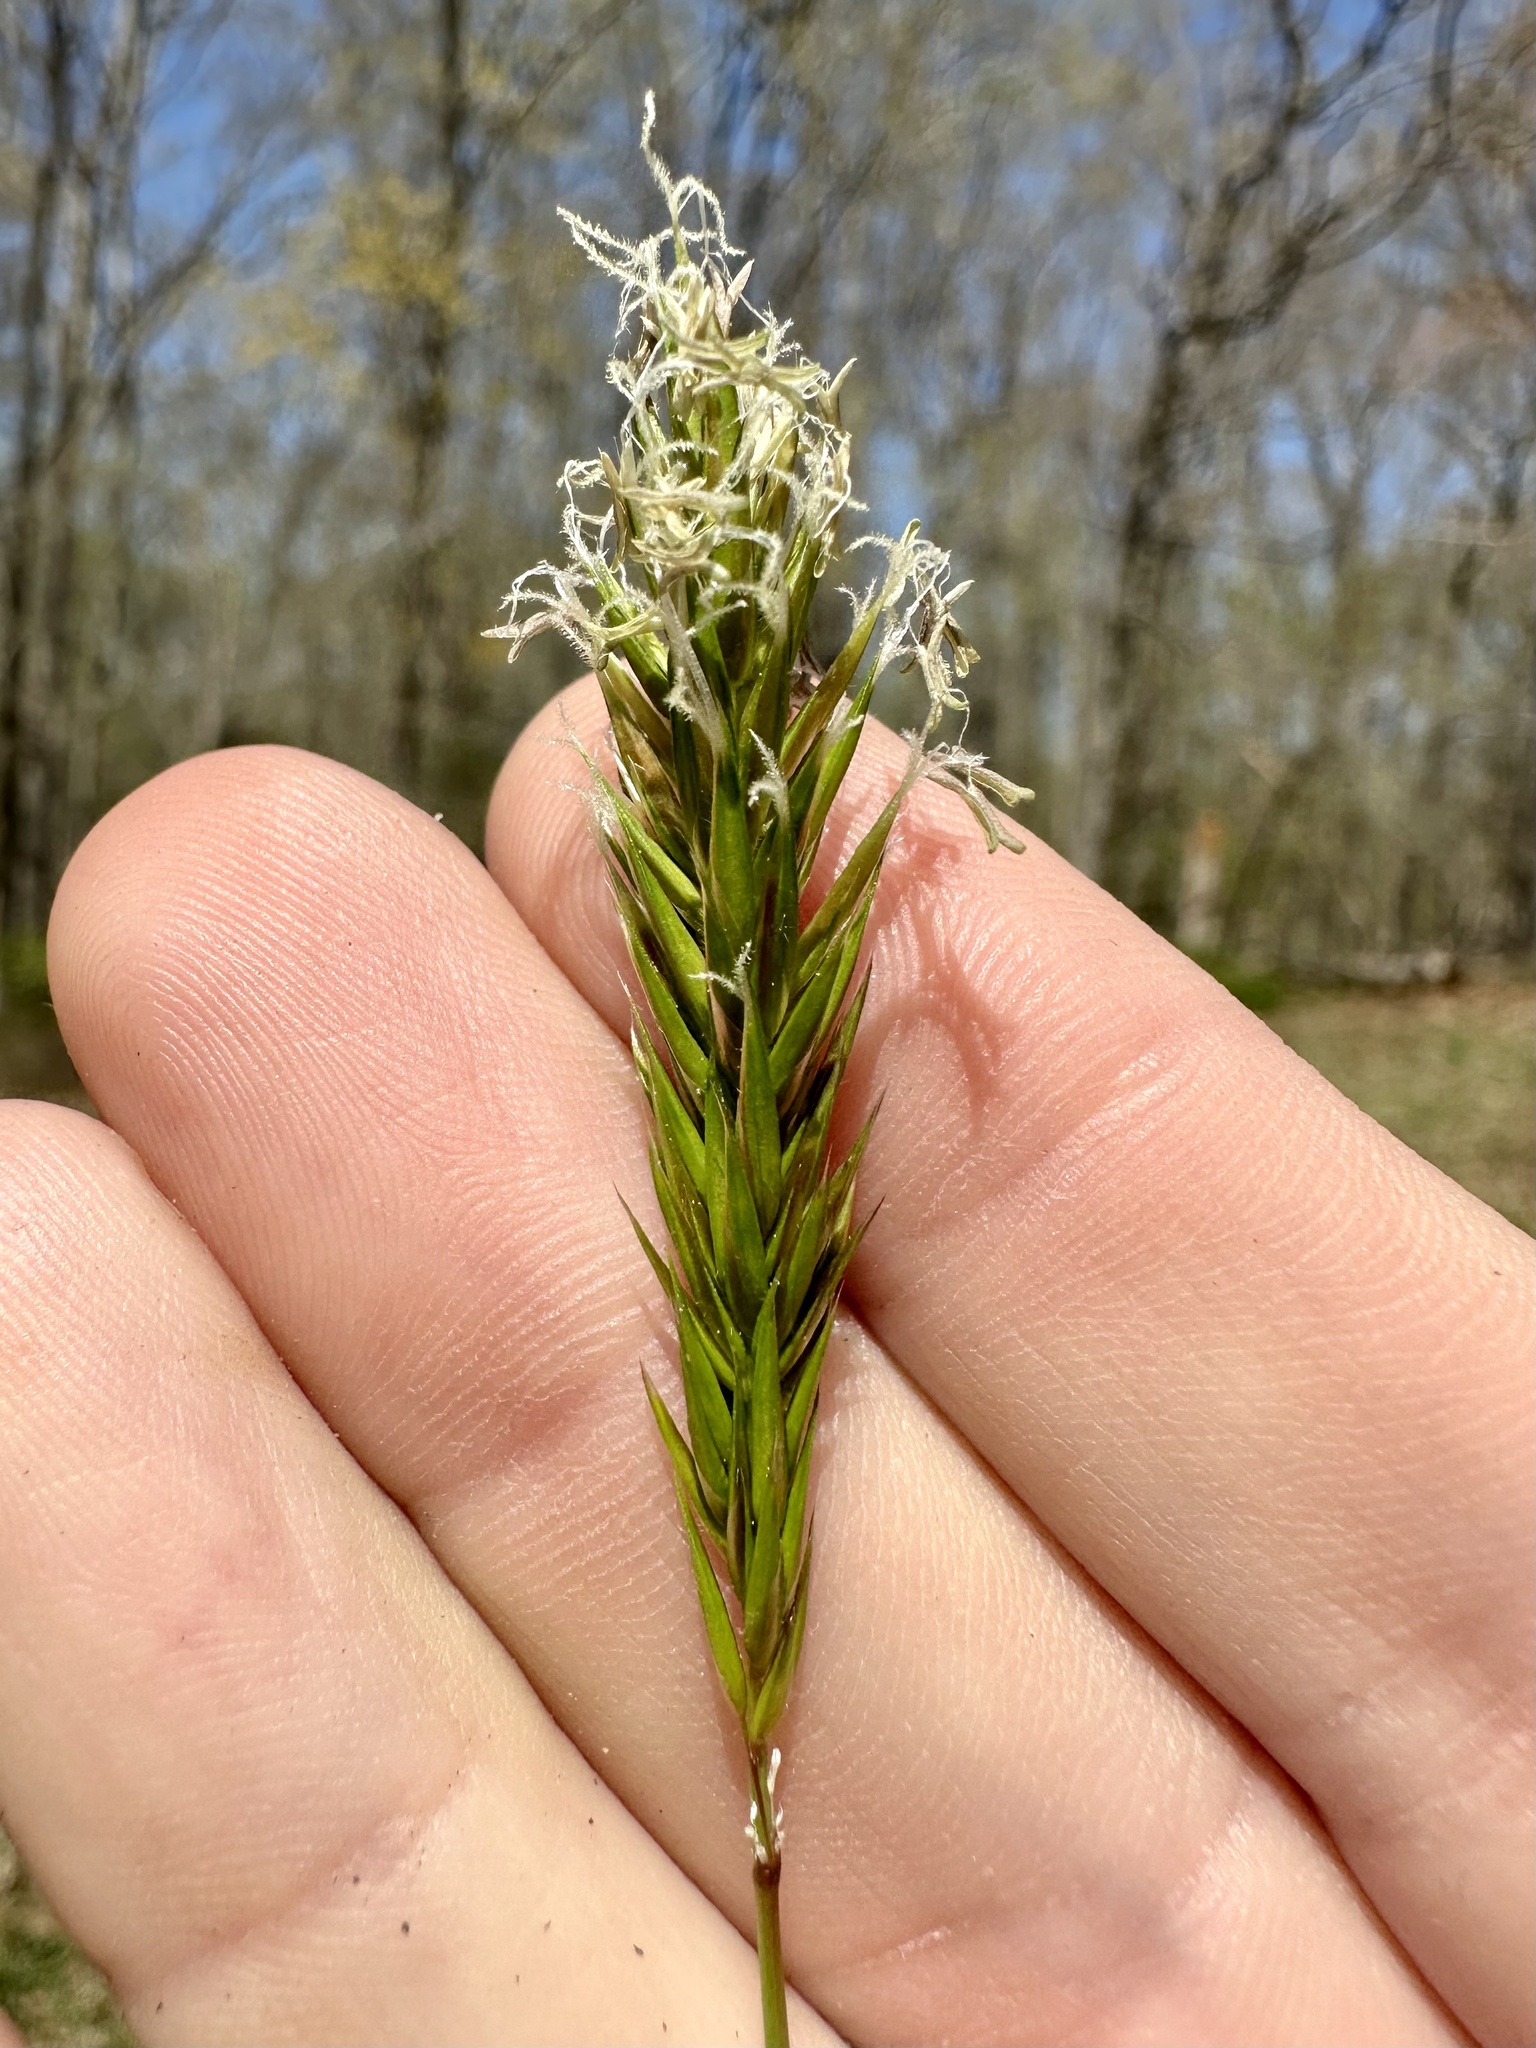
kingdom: Plantae
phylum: Tracheophyta
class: Liliopsida
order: Poales
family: Poaceae
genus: Anthoxanthum
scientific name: Anthoxanthum odoratum
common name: Sweet vernalgrass
